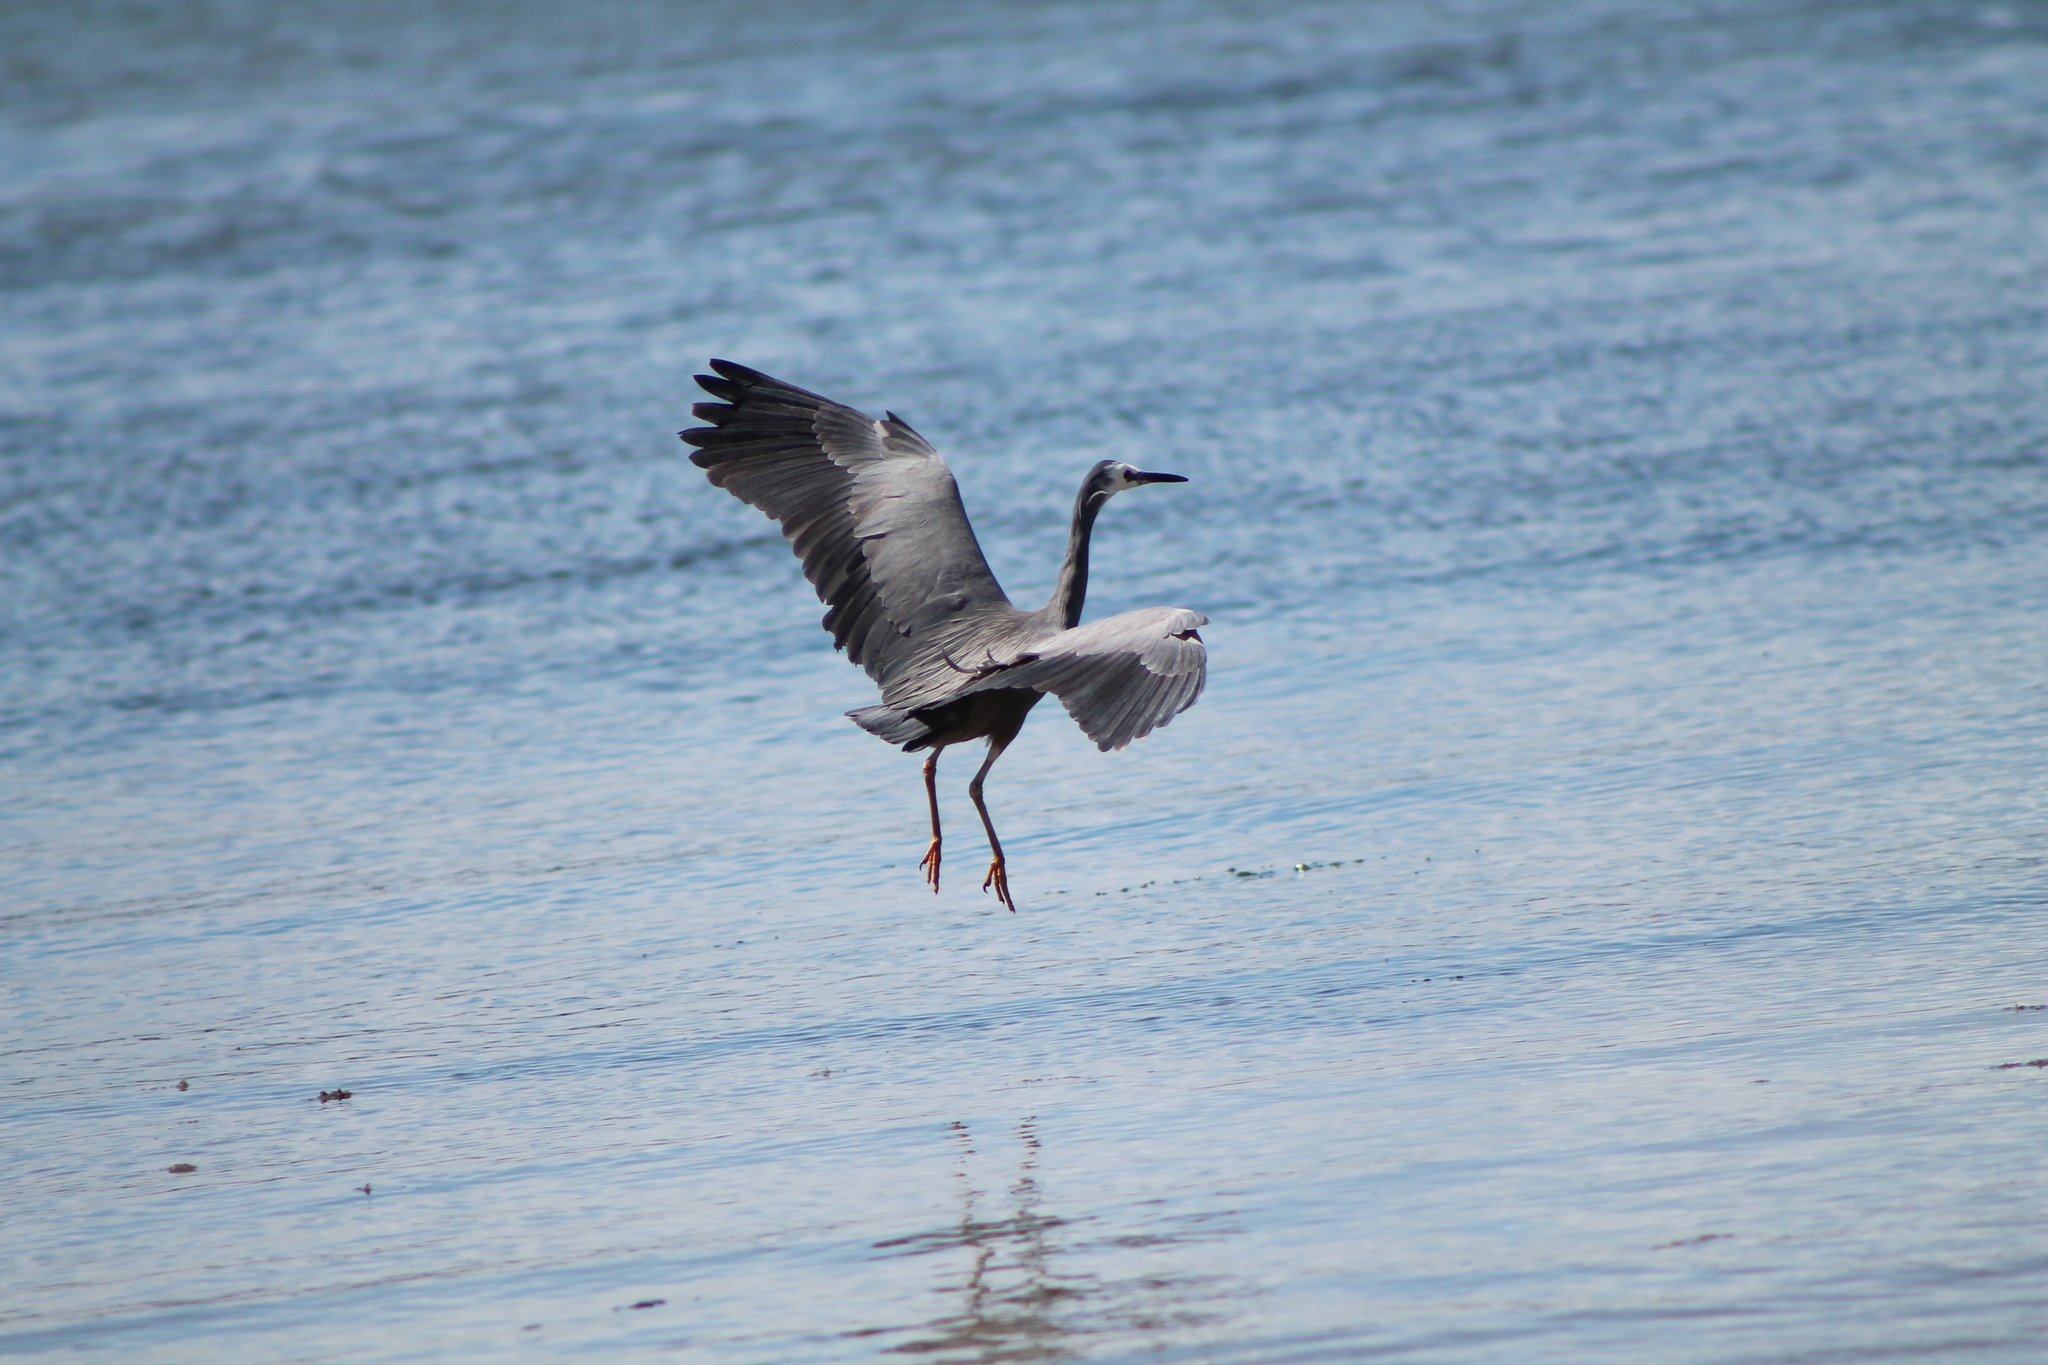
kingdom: Animalia
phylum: Chordata
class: Aves
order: Pelecaniformes
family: Ardeidae
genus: Egretta
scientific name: Egretta novaehollandiae
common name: White-faced heron
